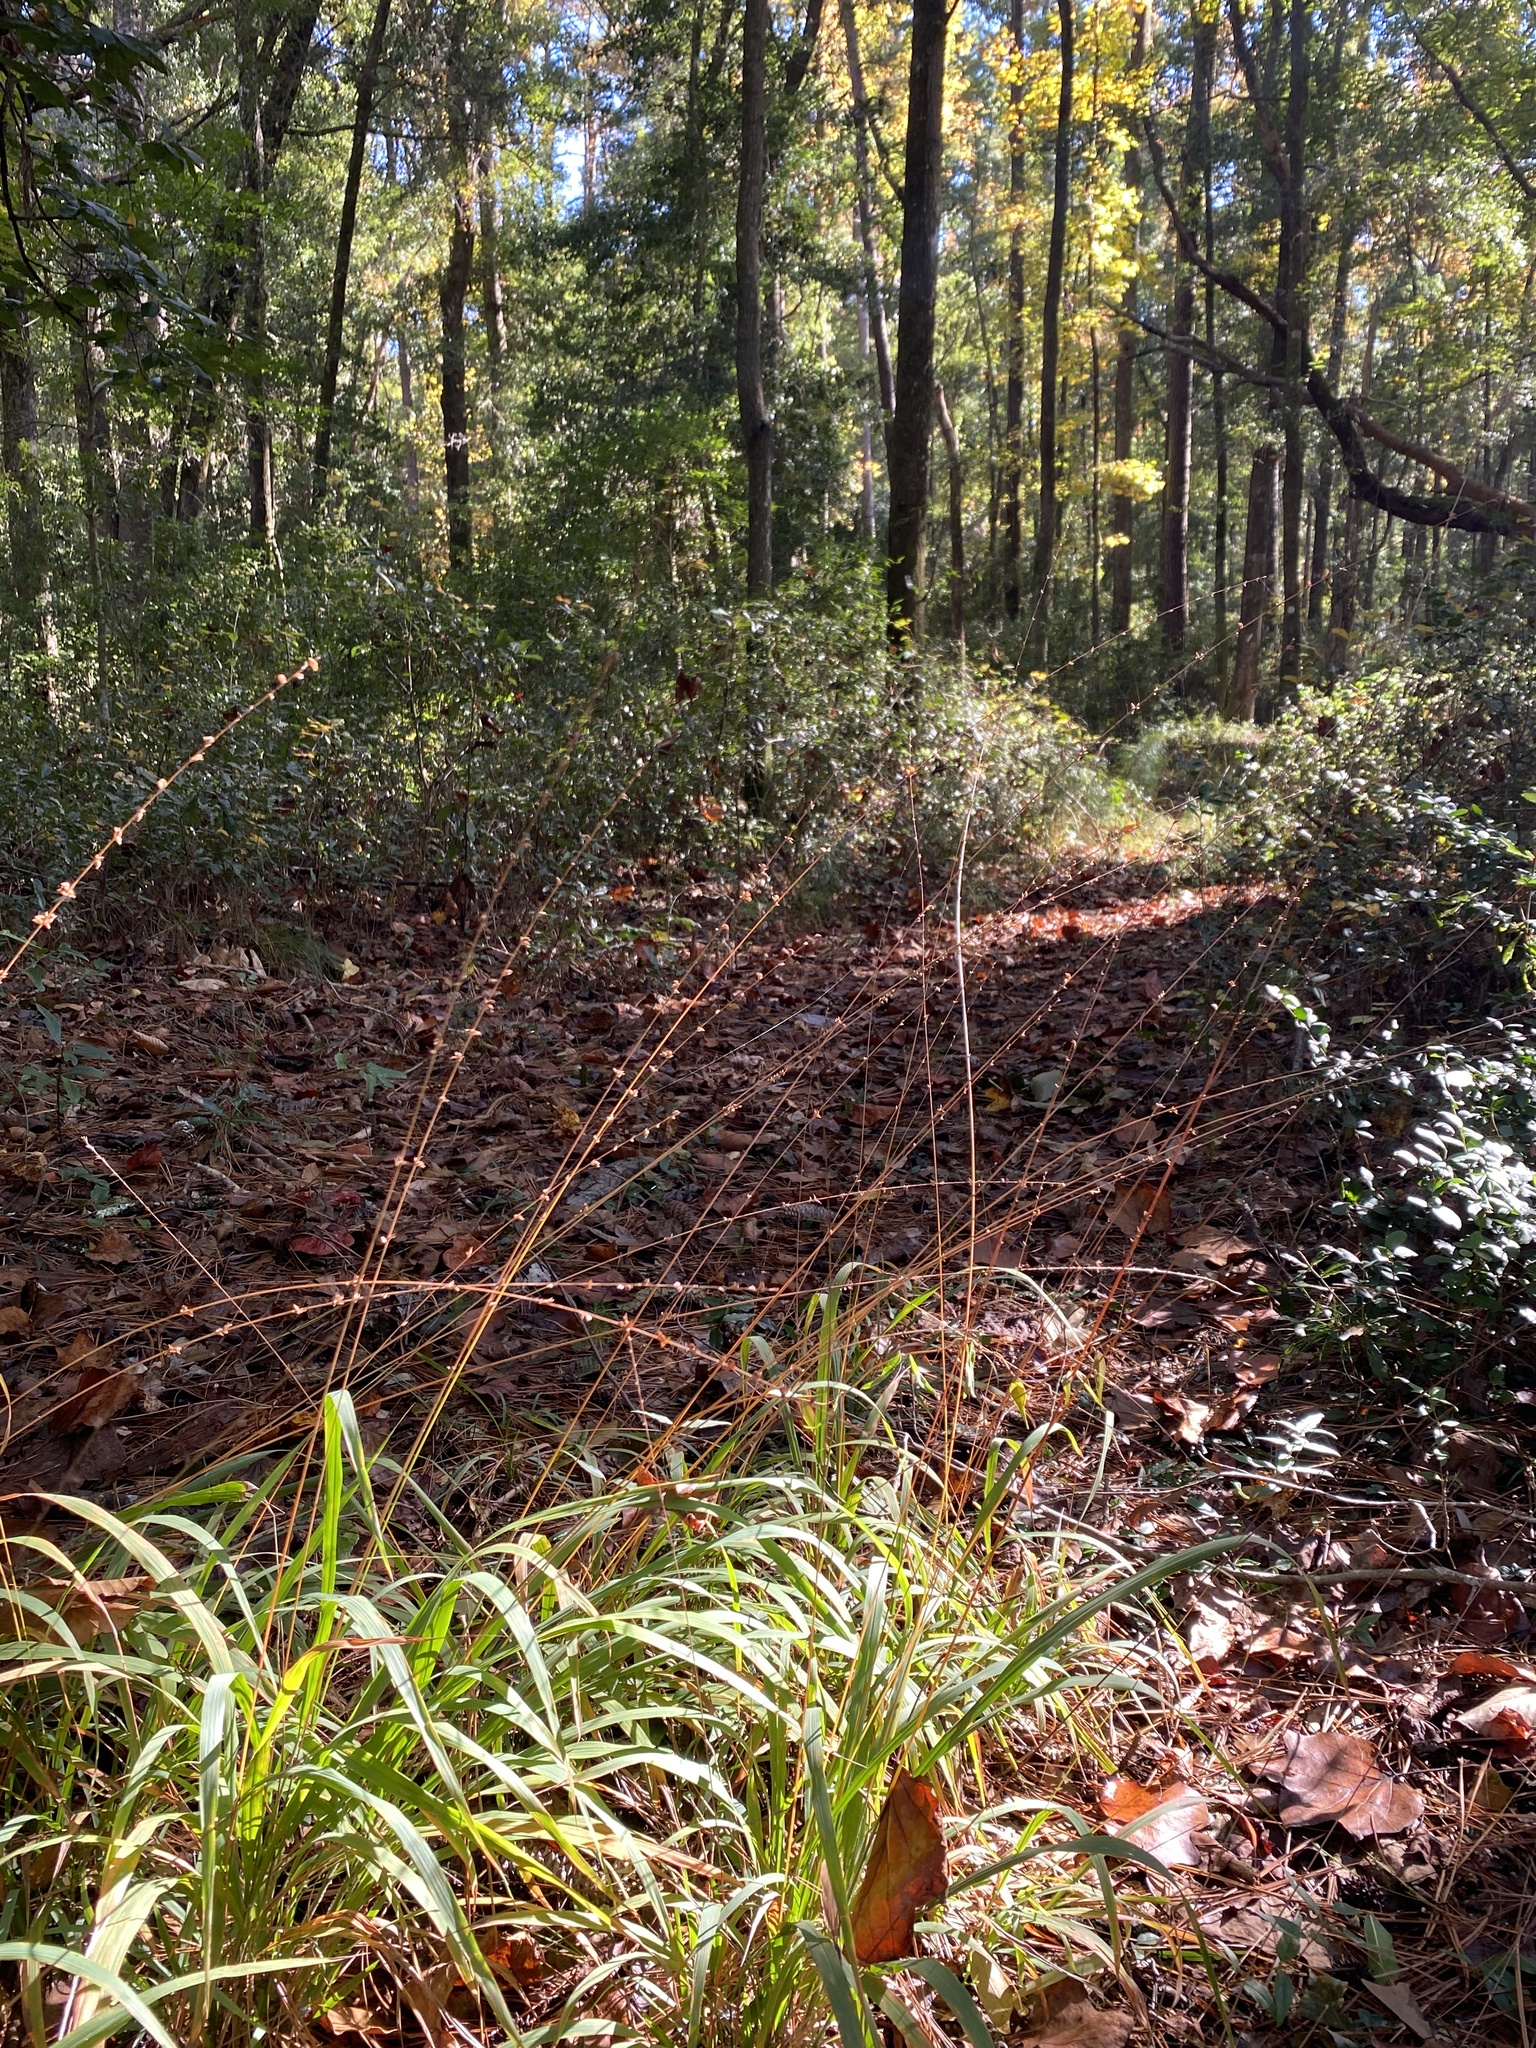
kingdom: Plantae
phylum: Tracheophyta
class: Liliopsida
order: Poales
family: Poaceae
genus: Chasmanthium
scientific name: Chasmanthium laxum
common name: Slender chasmanthium
